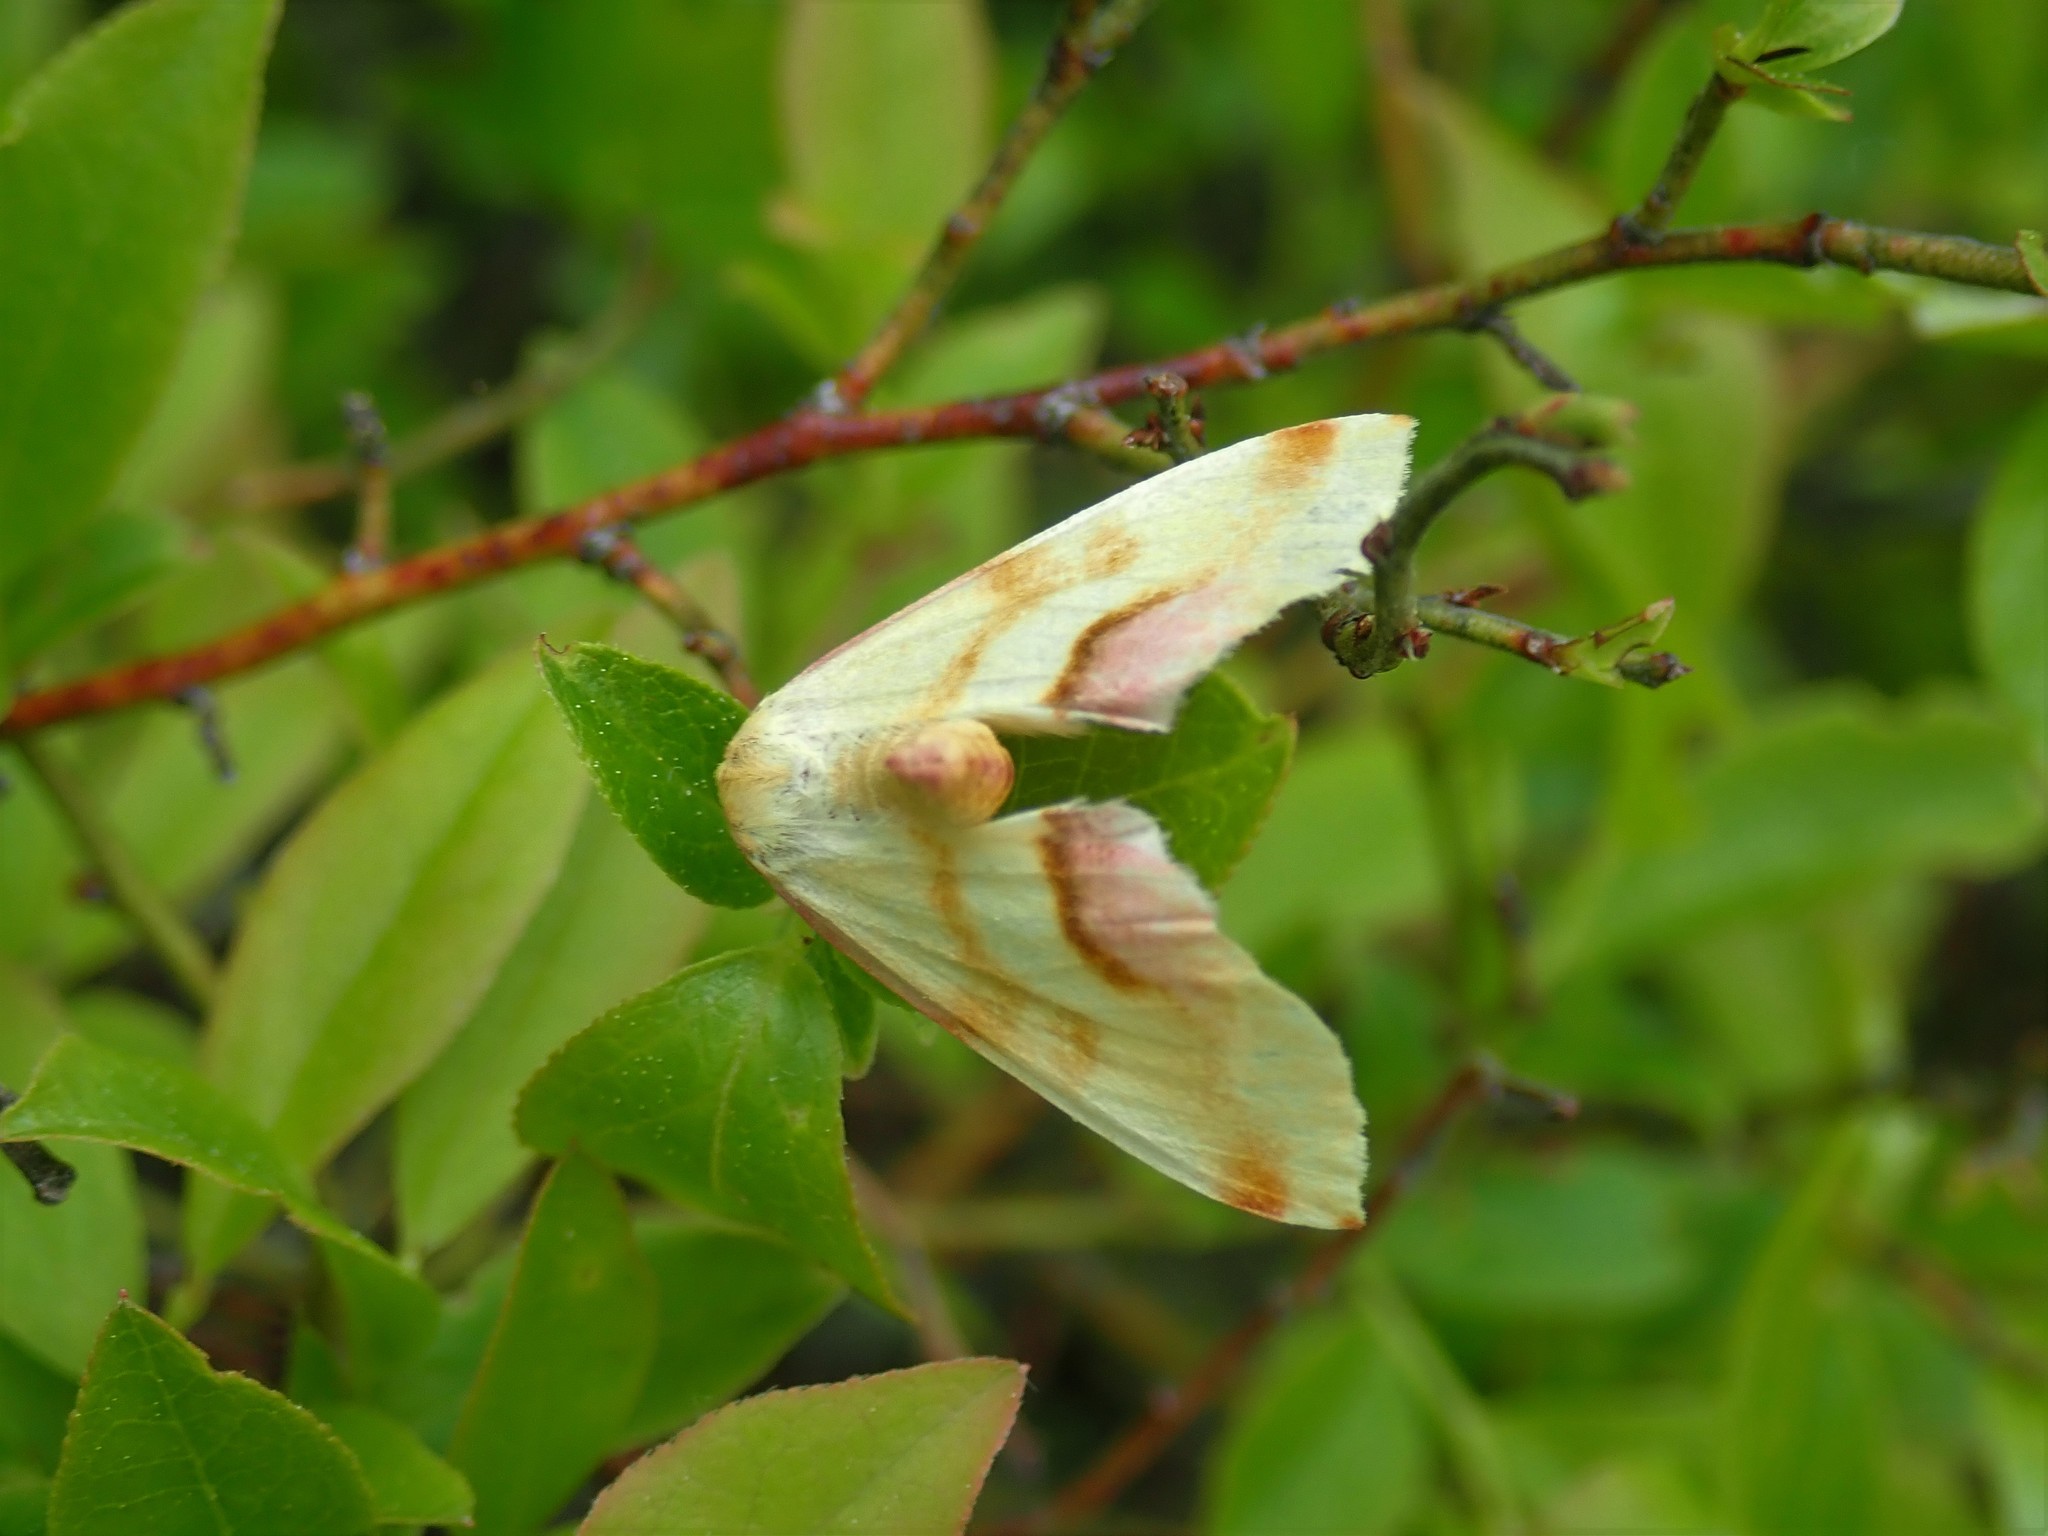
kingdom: Animalia
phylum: Arthropoda
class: Insecta
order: Lepidoptera
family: Geometridae
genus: Plagodis
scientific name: Plagodis serinaria
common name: Lemon plagodis
